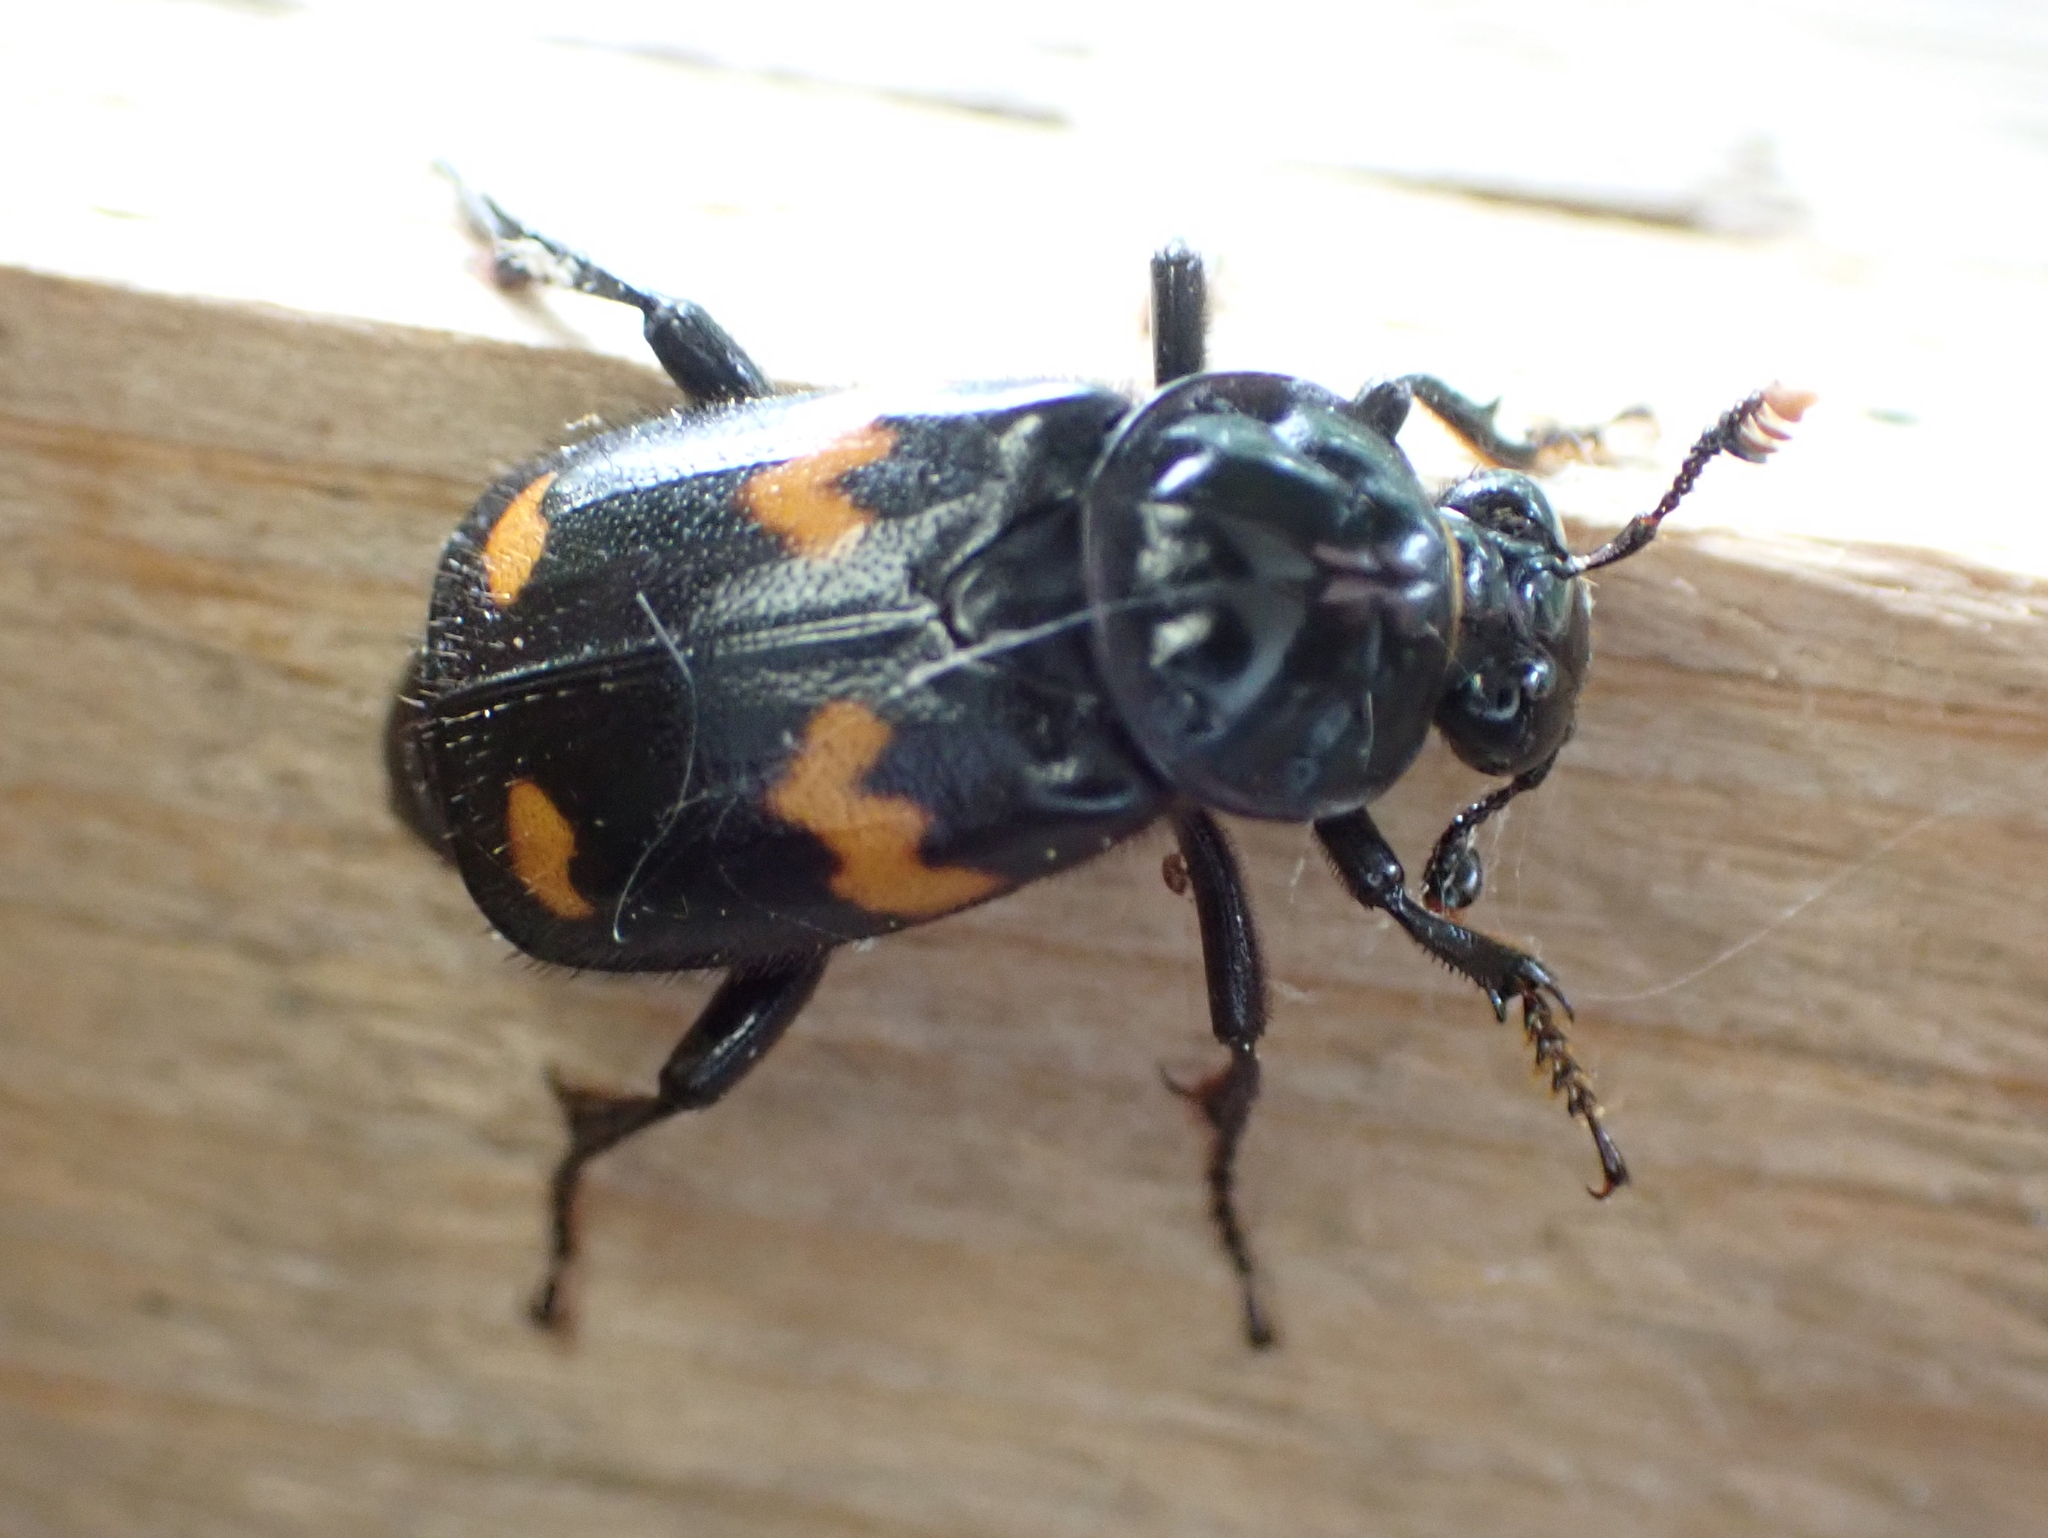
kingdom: Animalia
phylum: Arthropoda
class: Insecta
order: Coleoptera
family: Staphylinidae
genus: Nicrophorus
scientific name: Nicrophorus orbicollis
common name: Roundneck sexton beetle
